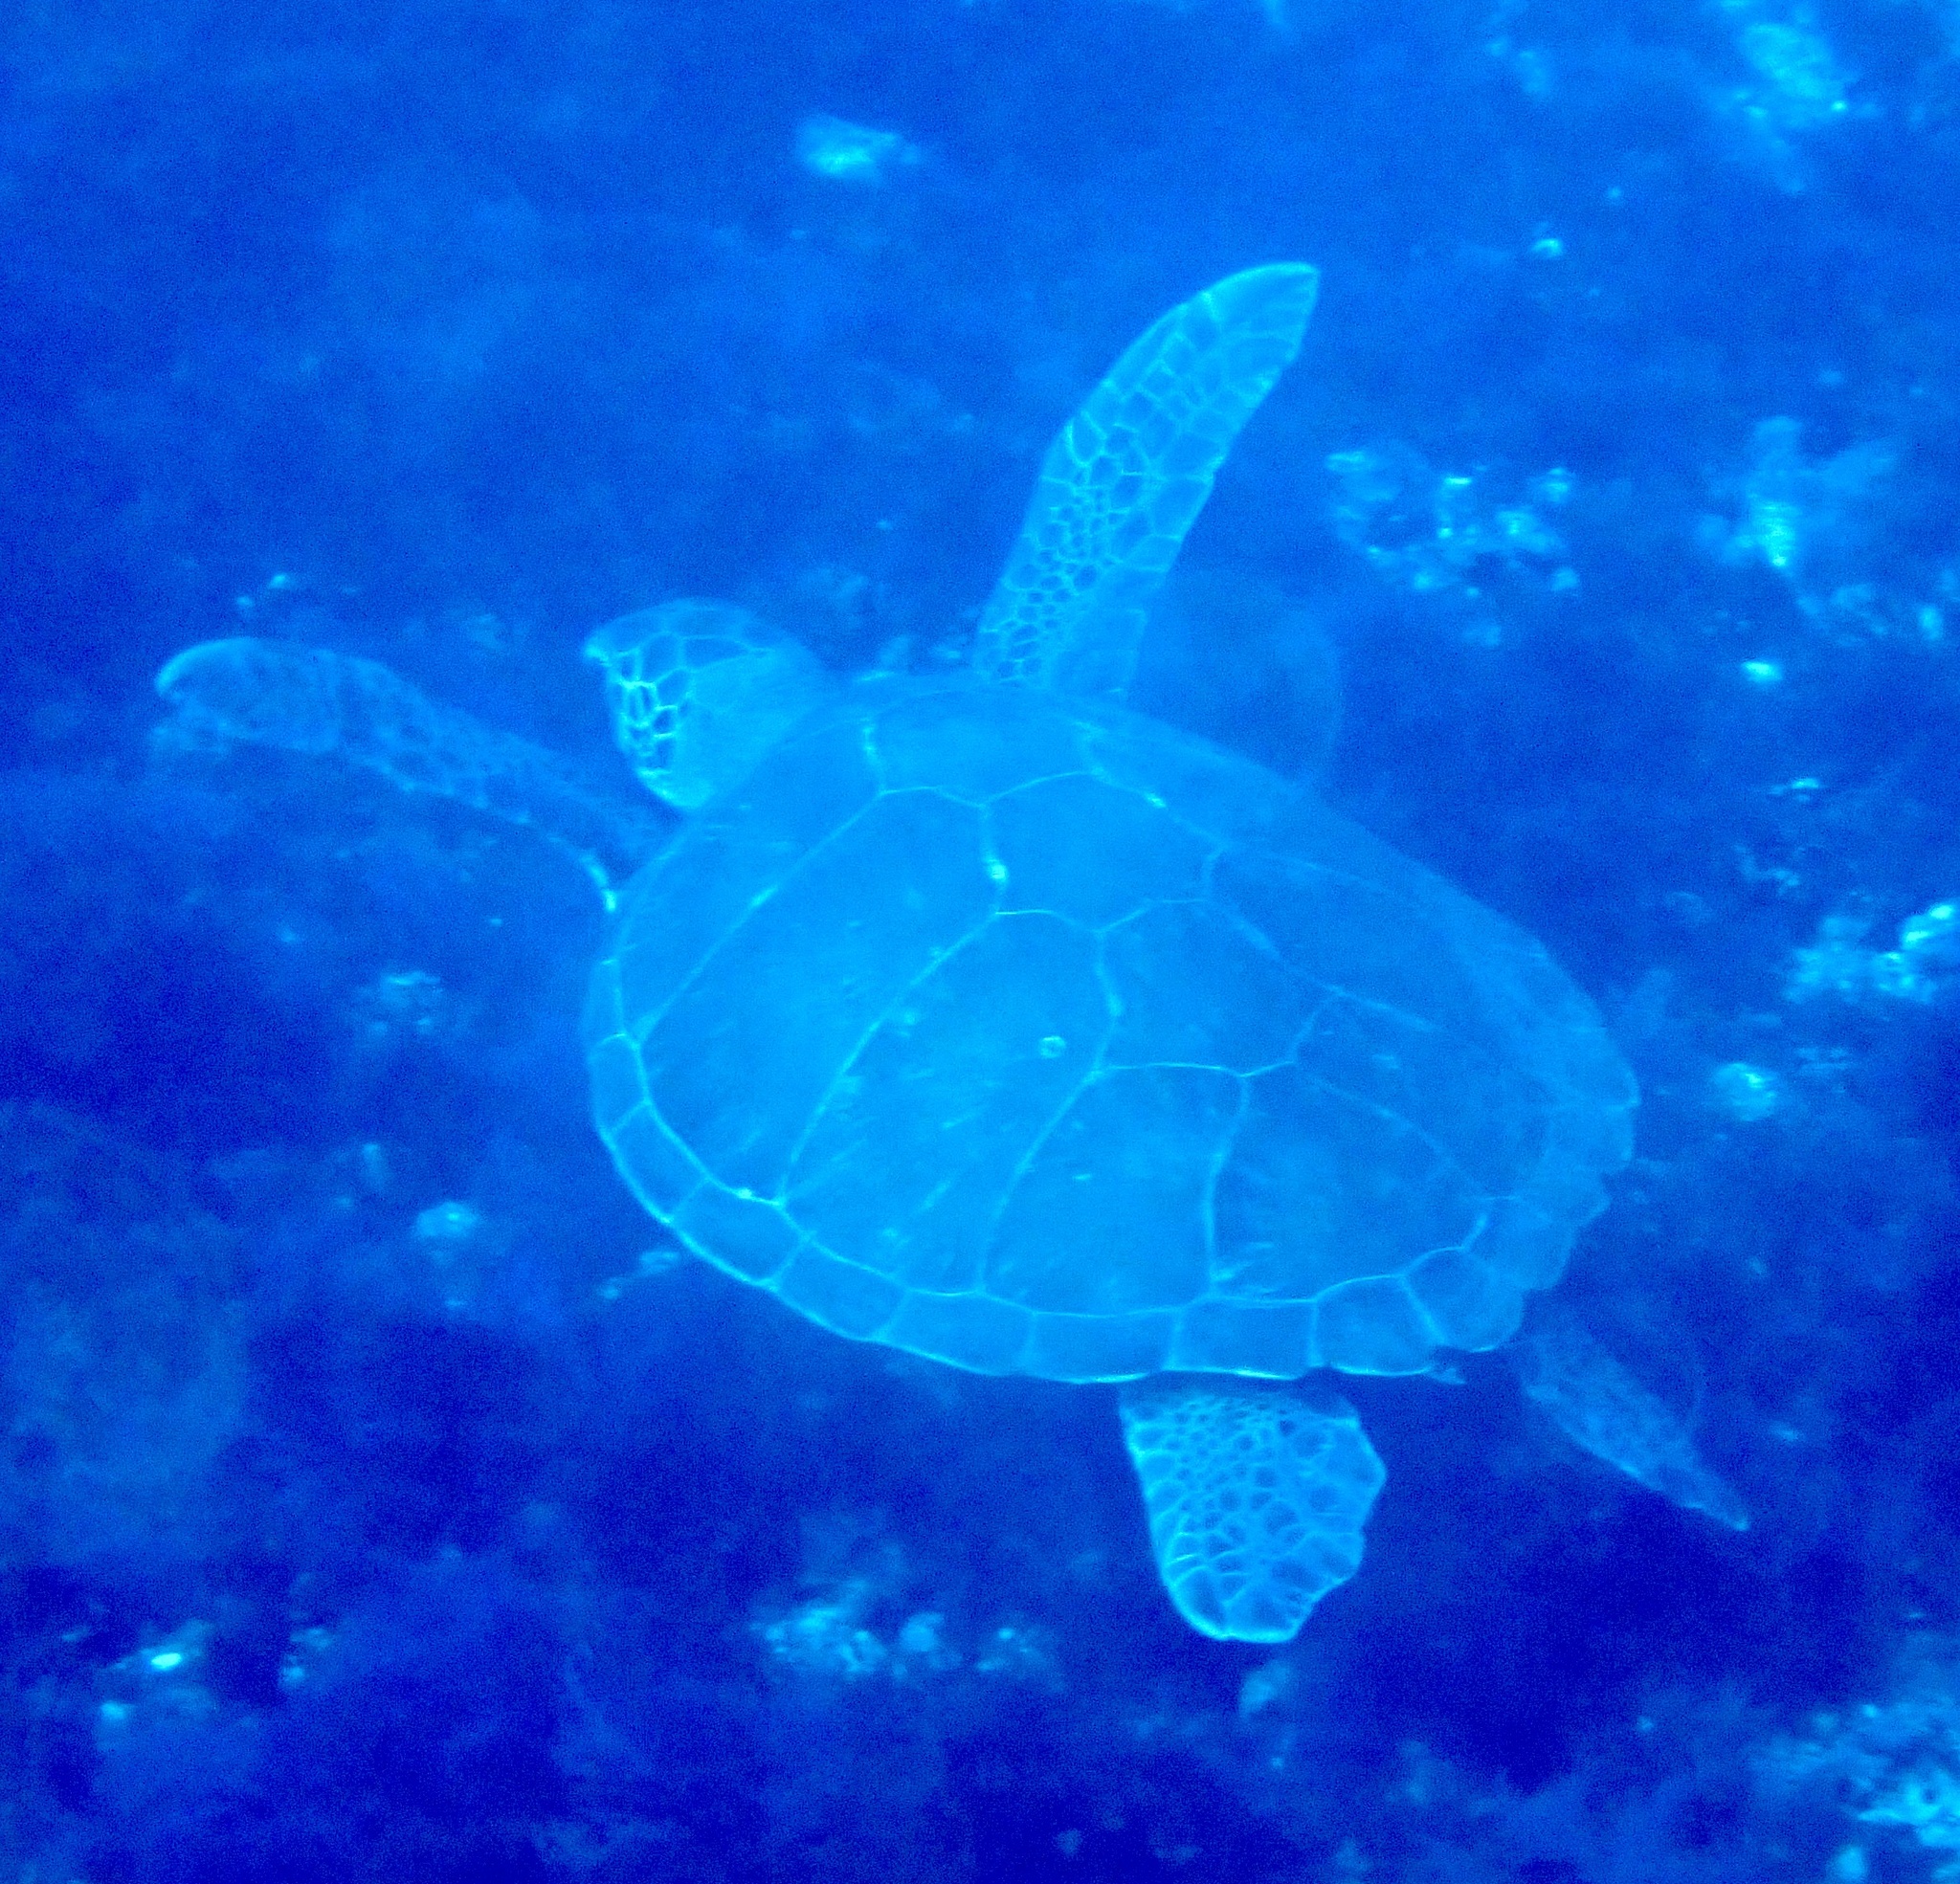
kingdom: Animalia
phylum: Chordata
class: Testudines
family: Cheloniidae
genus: Chelonia
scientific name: Chelonia mydas
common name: Green turtle
